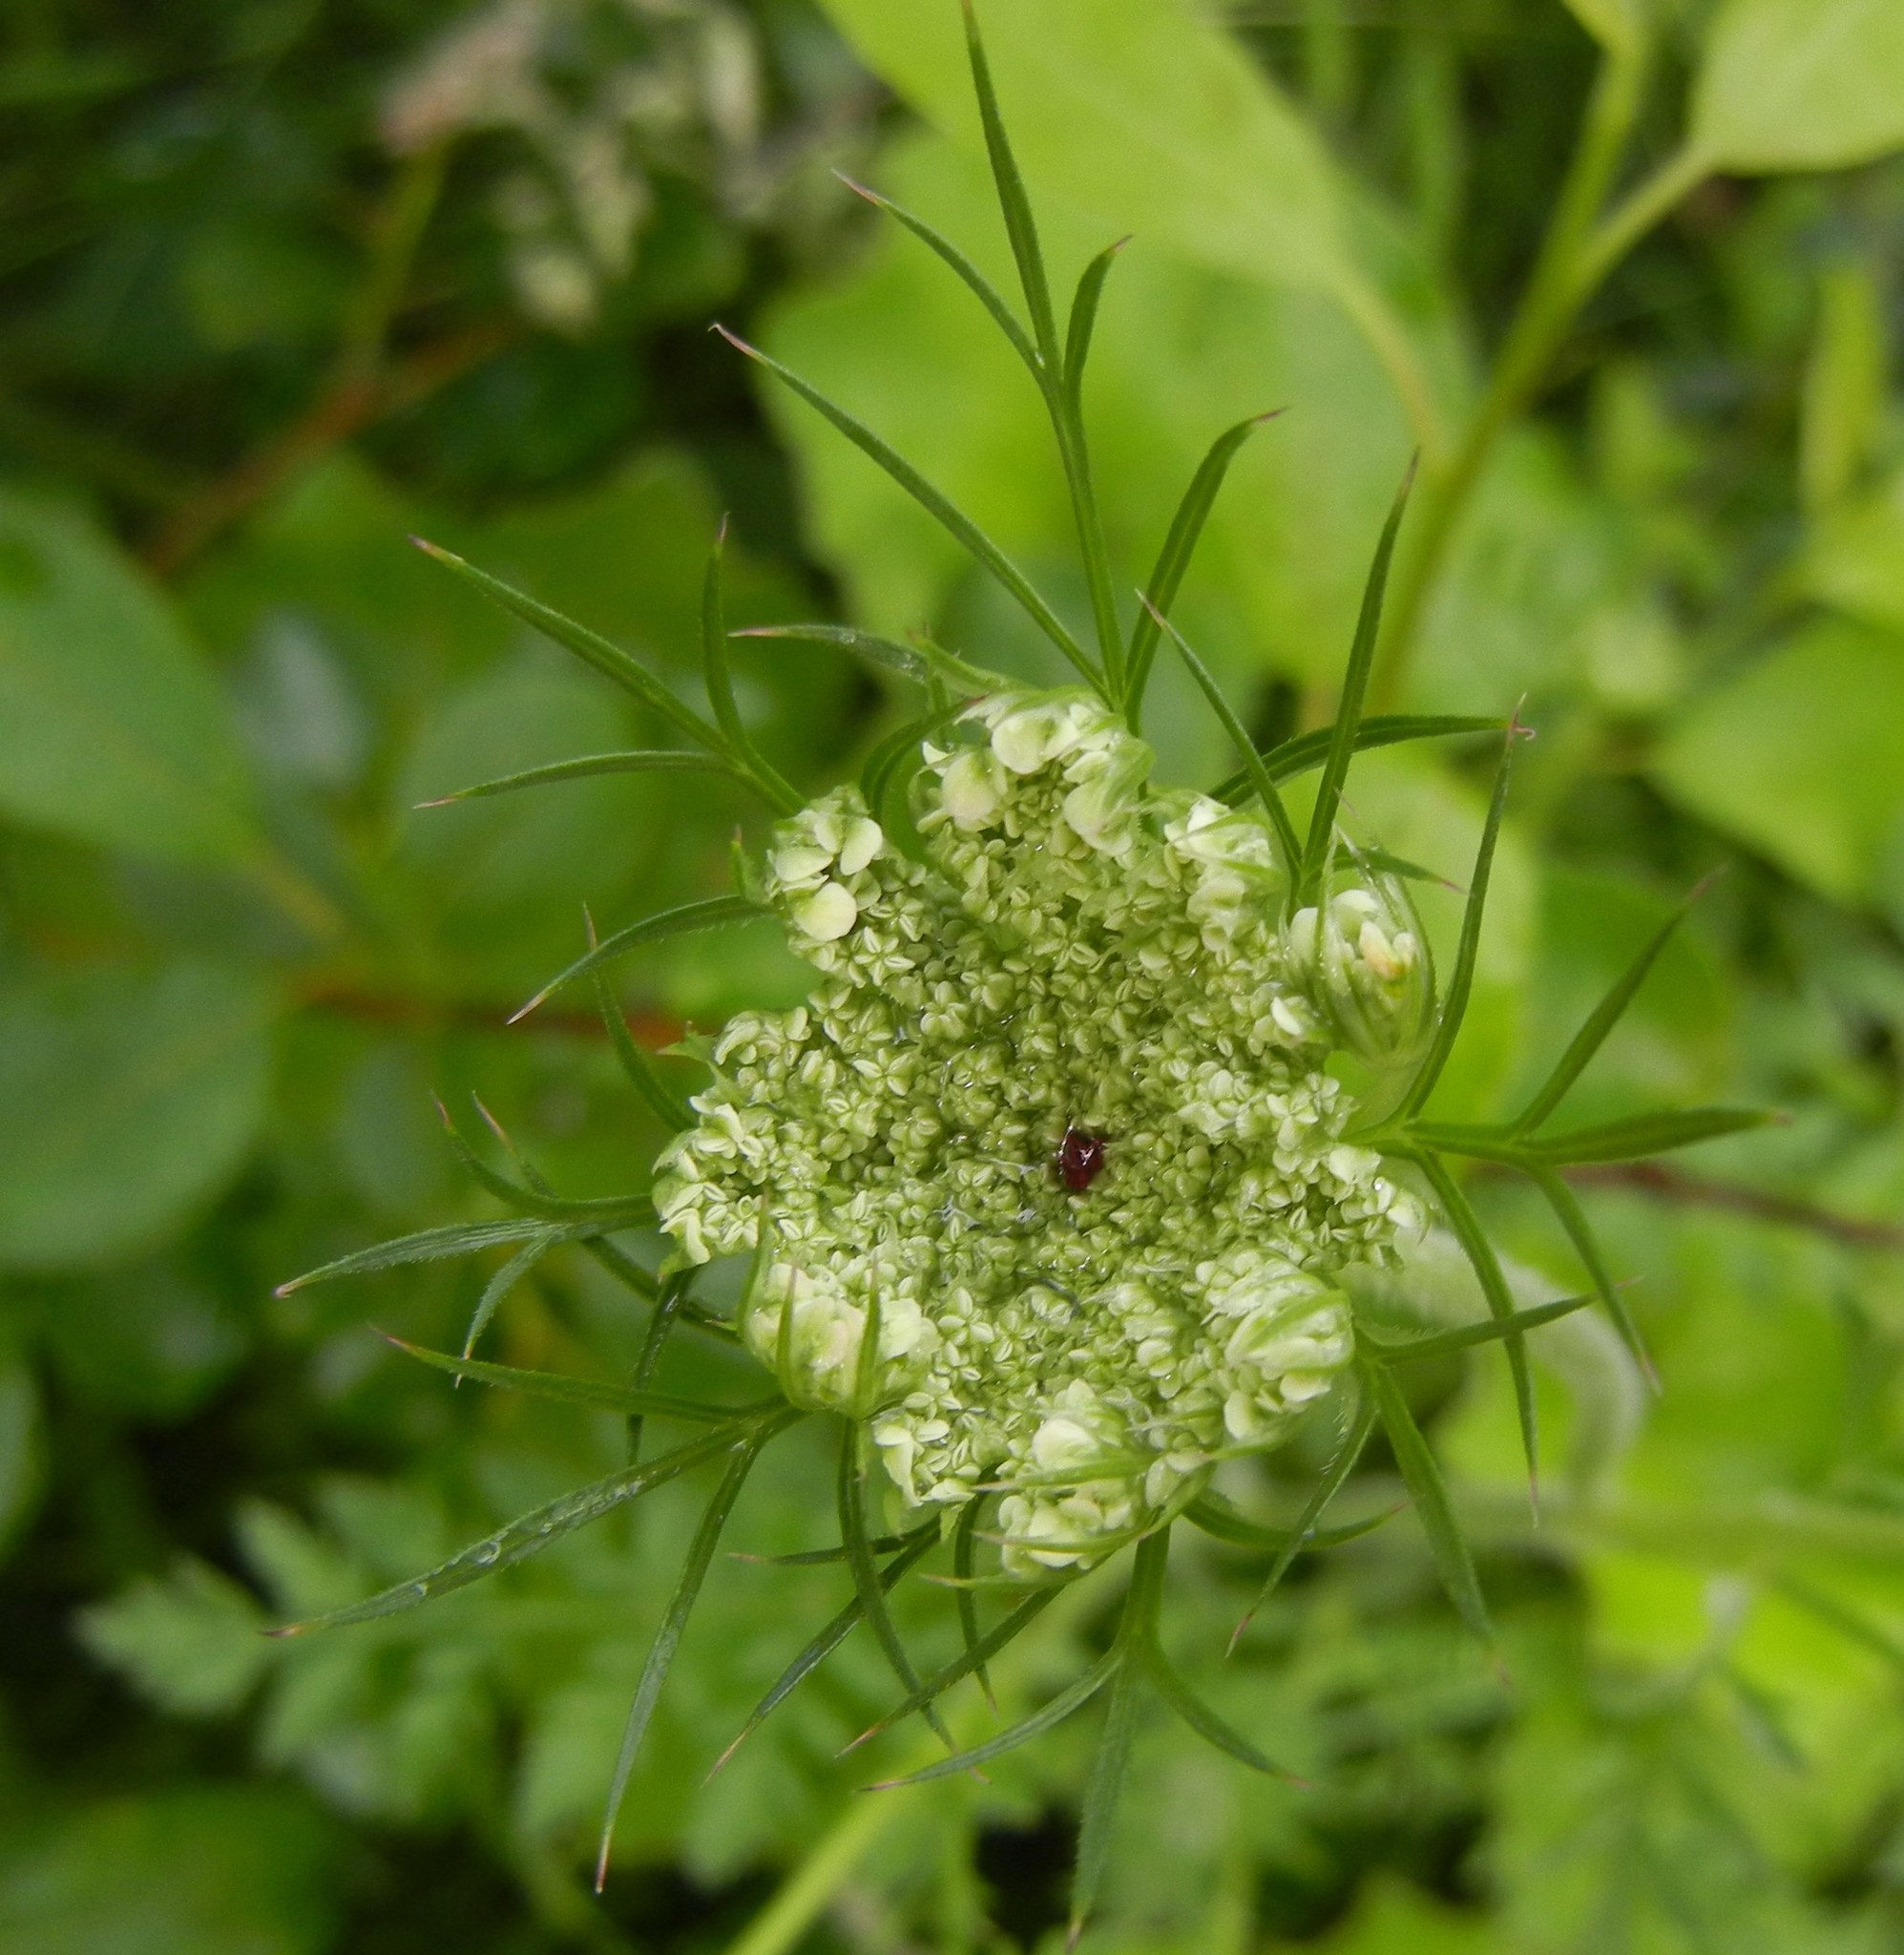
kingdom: Plantae
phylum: Tracheophyta
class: Magnoliopsida
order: Apiales
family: Apiaceae
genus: Daucus
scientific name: Daucus carota
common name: Wild carrot
